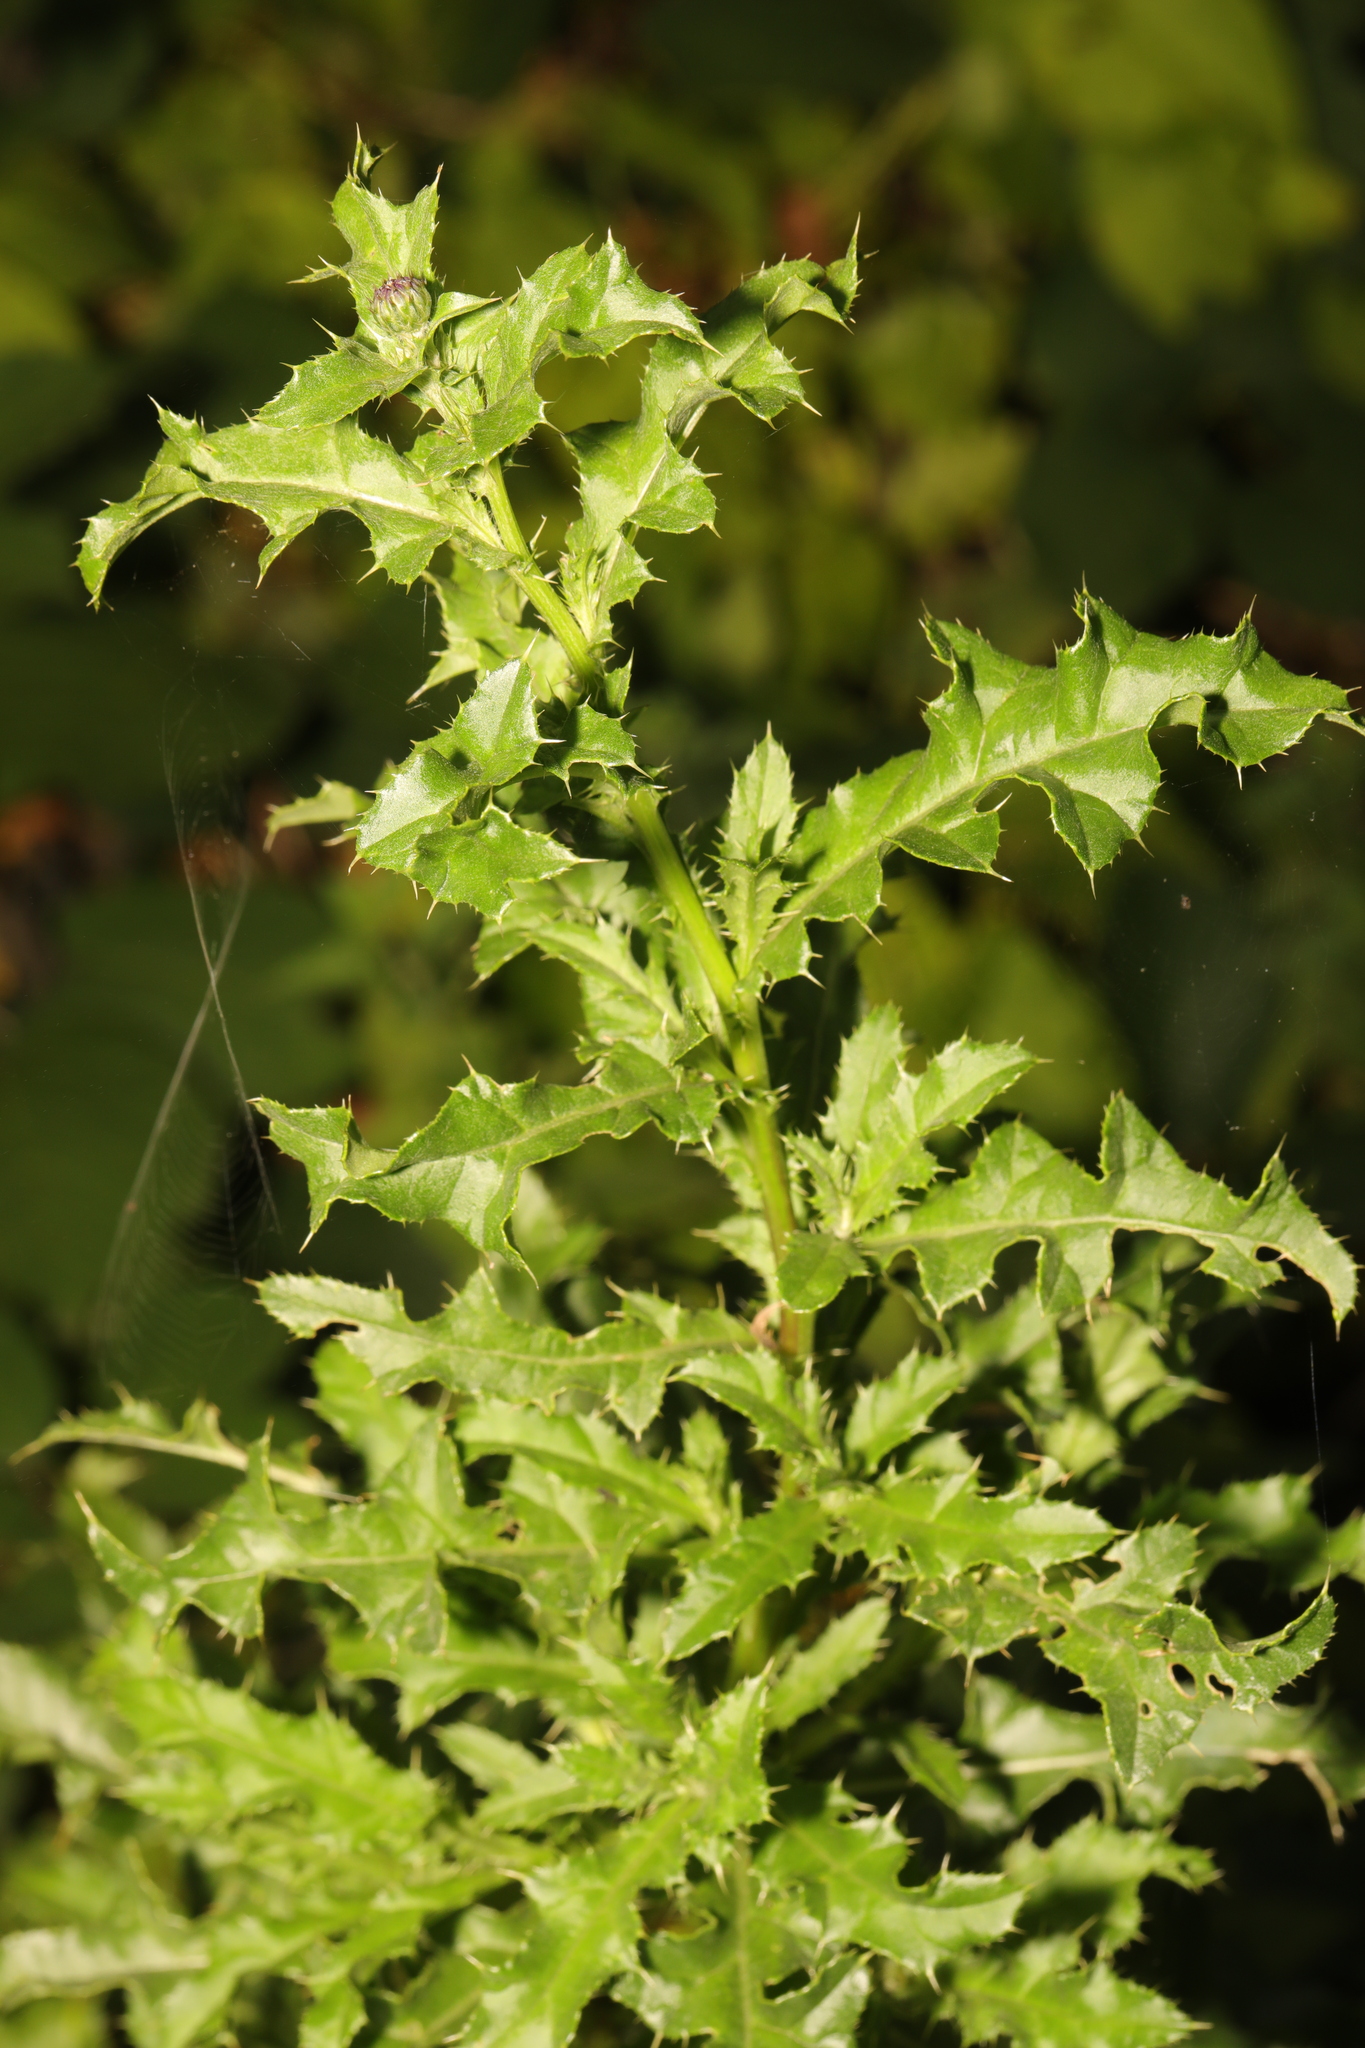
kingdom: Plantae
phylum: Tracheophyta
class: Magnoliopsida
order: Asterales
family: Asteraceae
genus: Cirsium
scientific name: Cirsium arvense
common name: Creeping thistle
